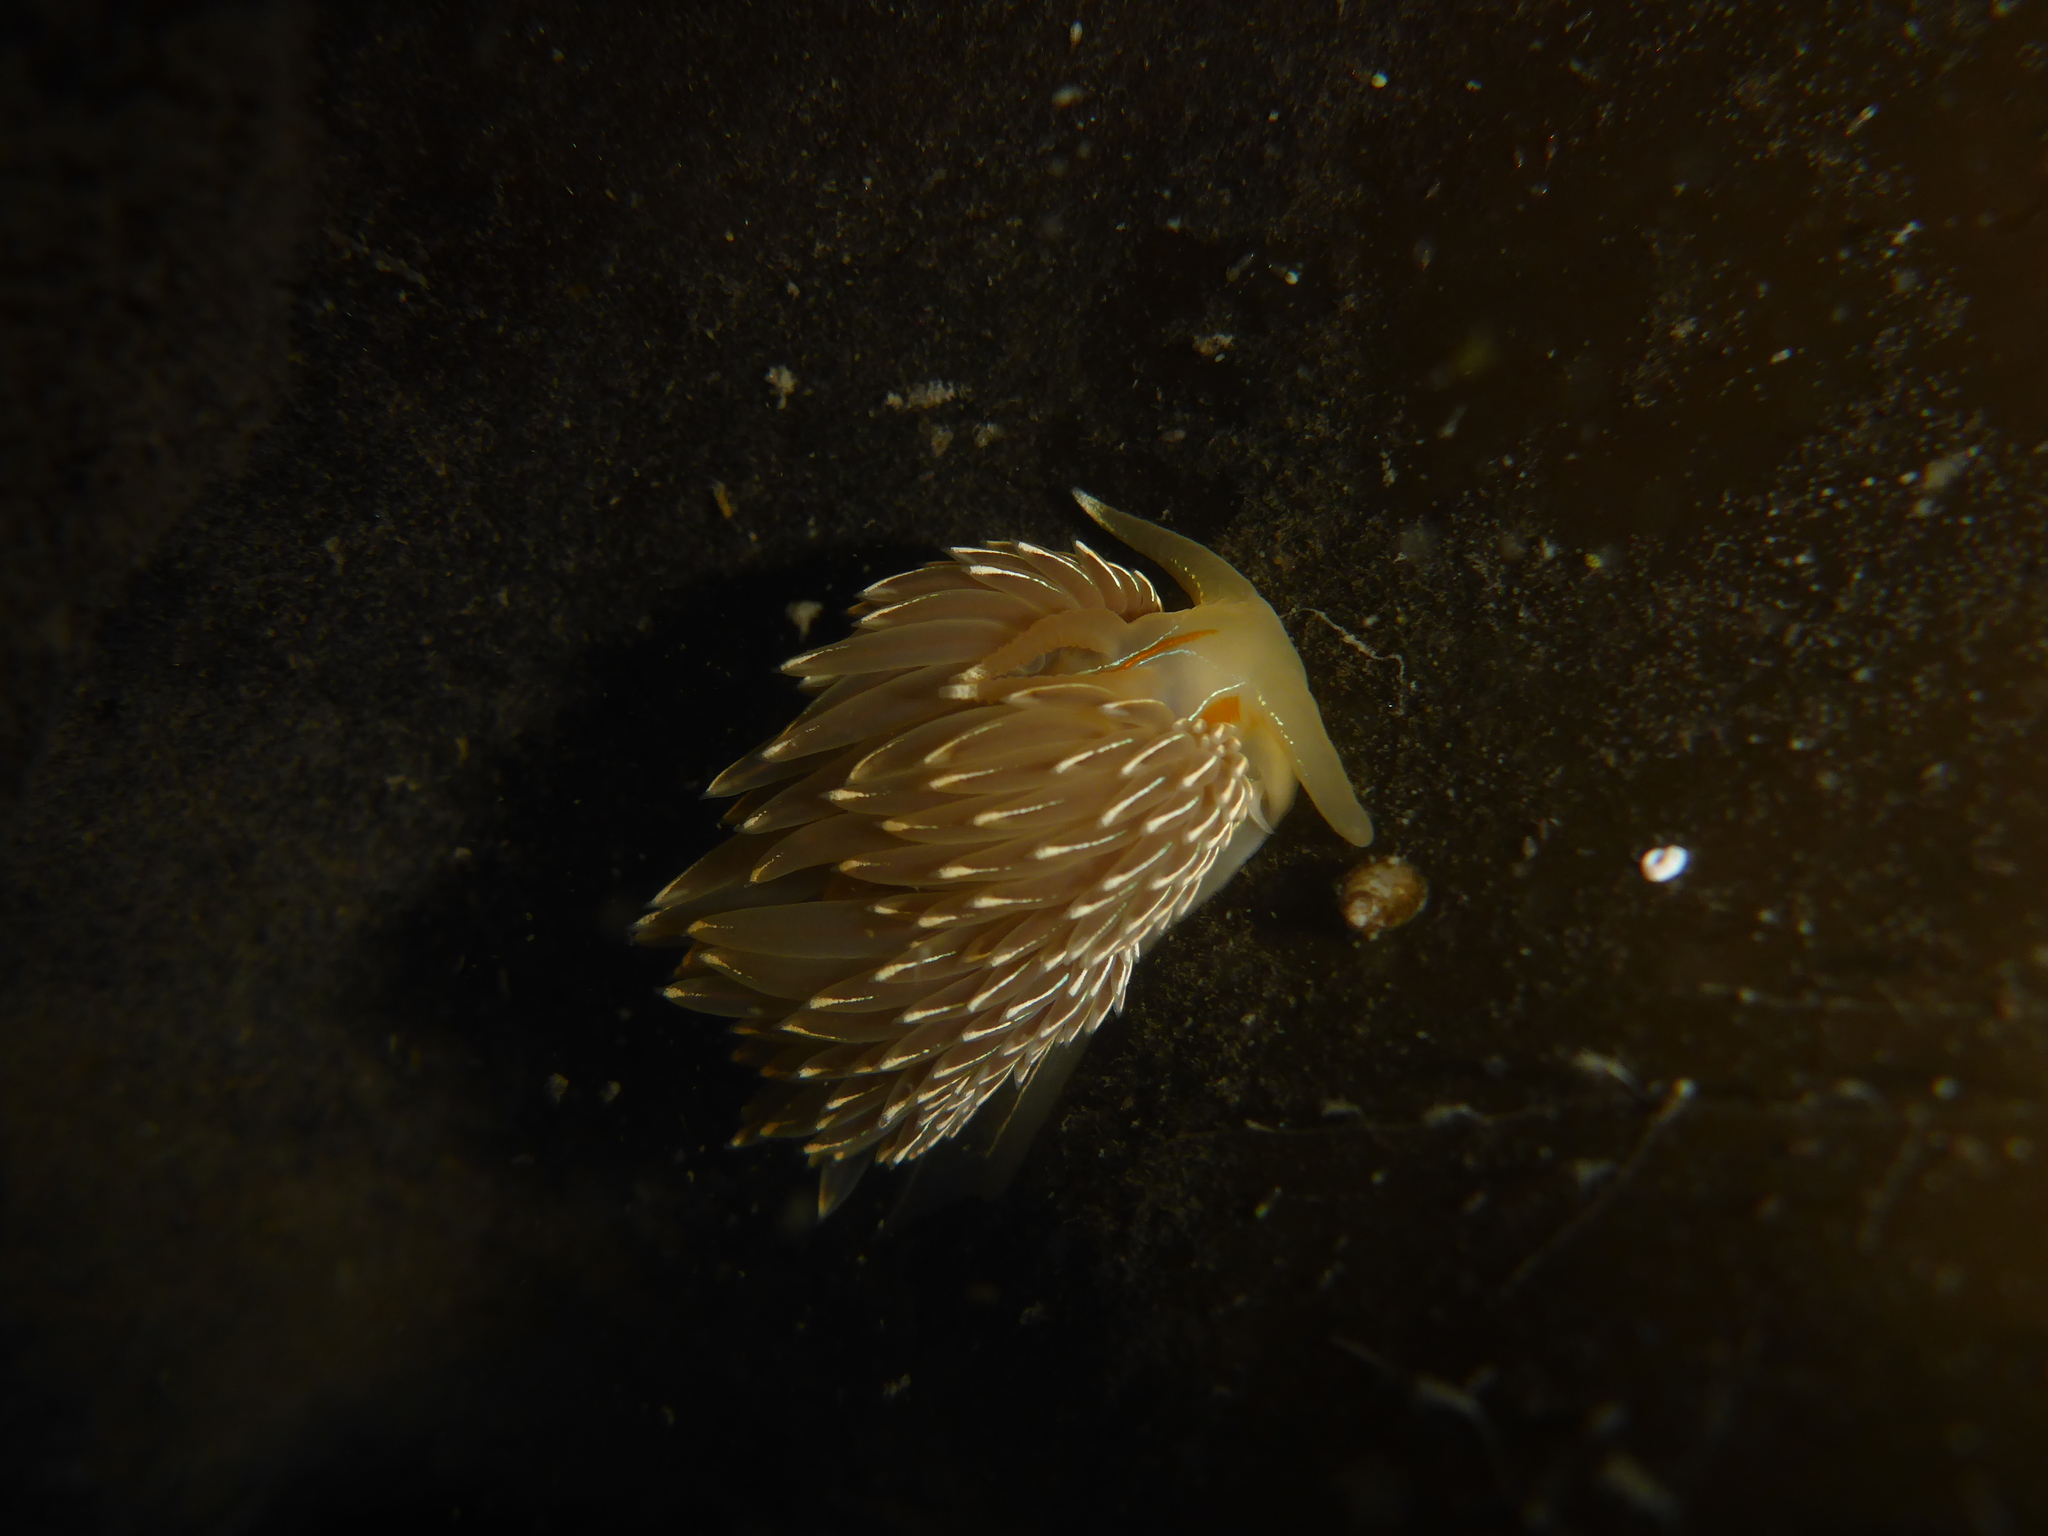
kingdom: Animalia
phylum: Mollusca
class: Gastropoda
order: Nudibranchia
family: Myrrhinidae
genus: Hermissenda
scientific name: Hermissenda crassicornis
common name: Hermissenda
